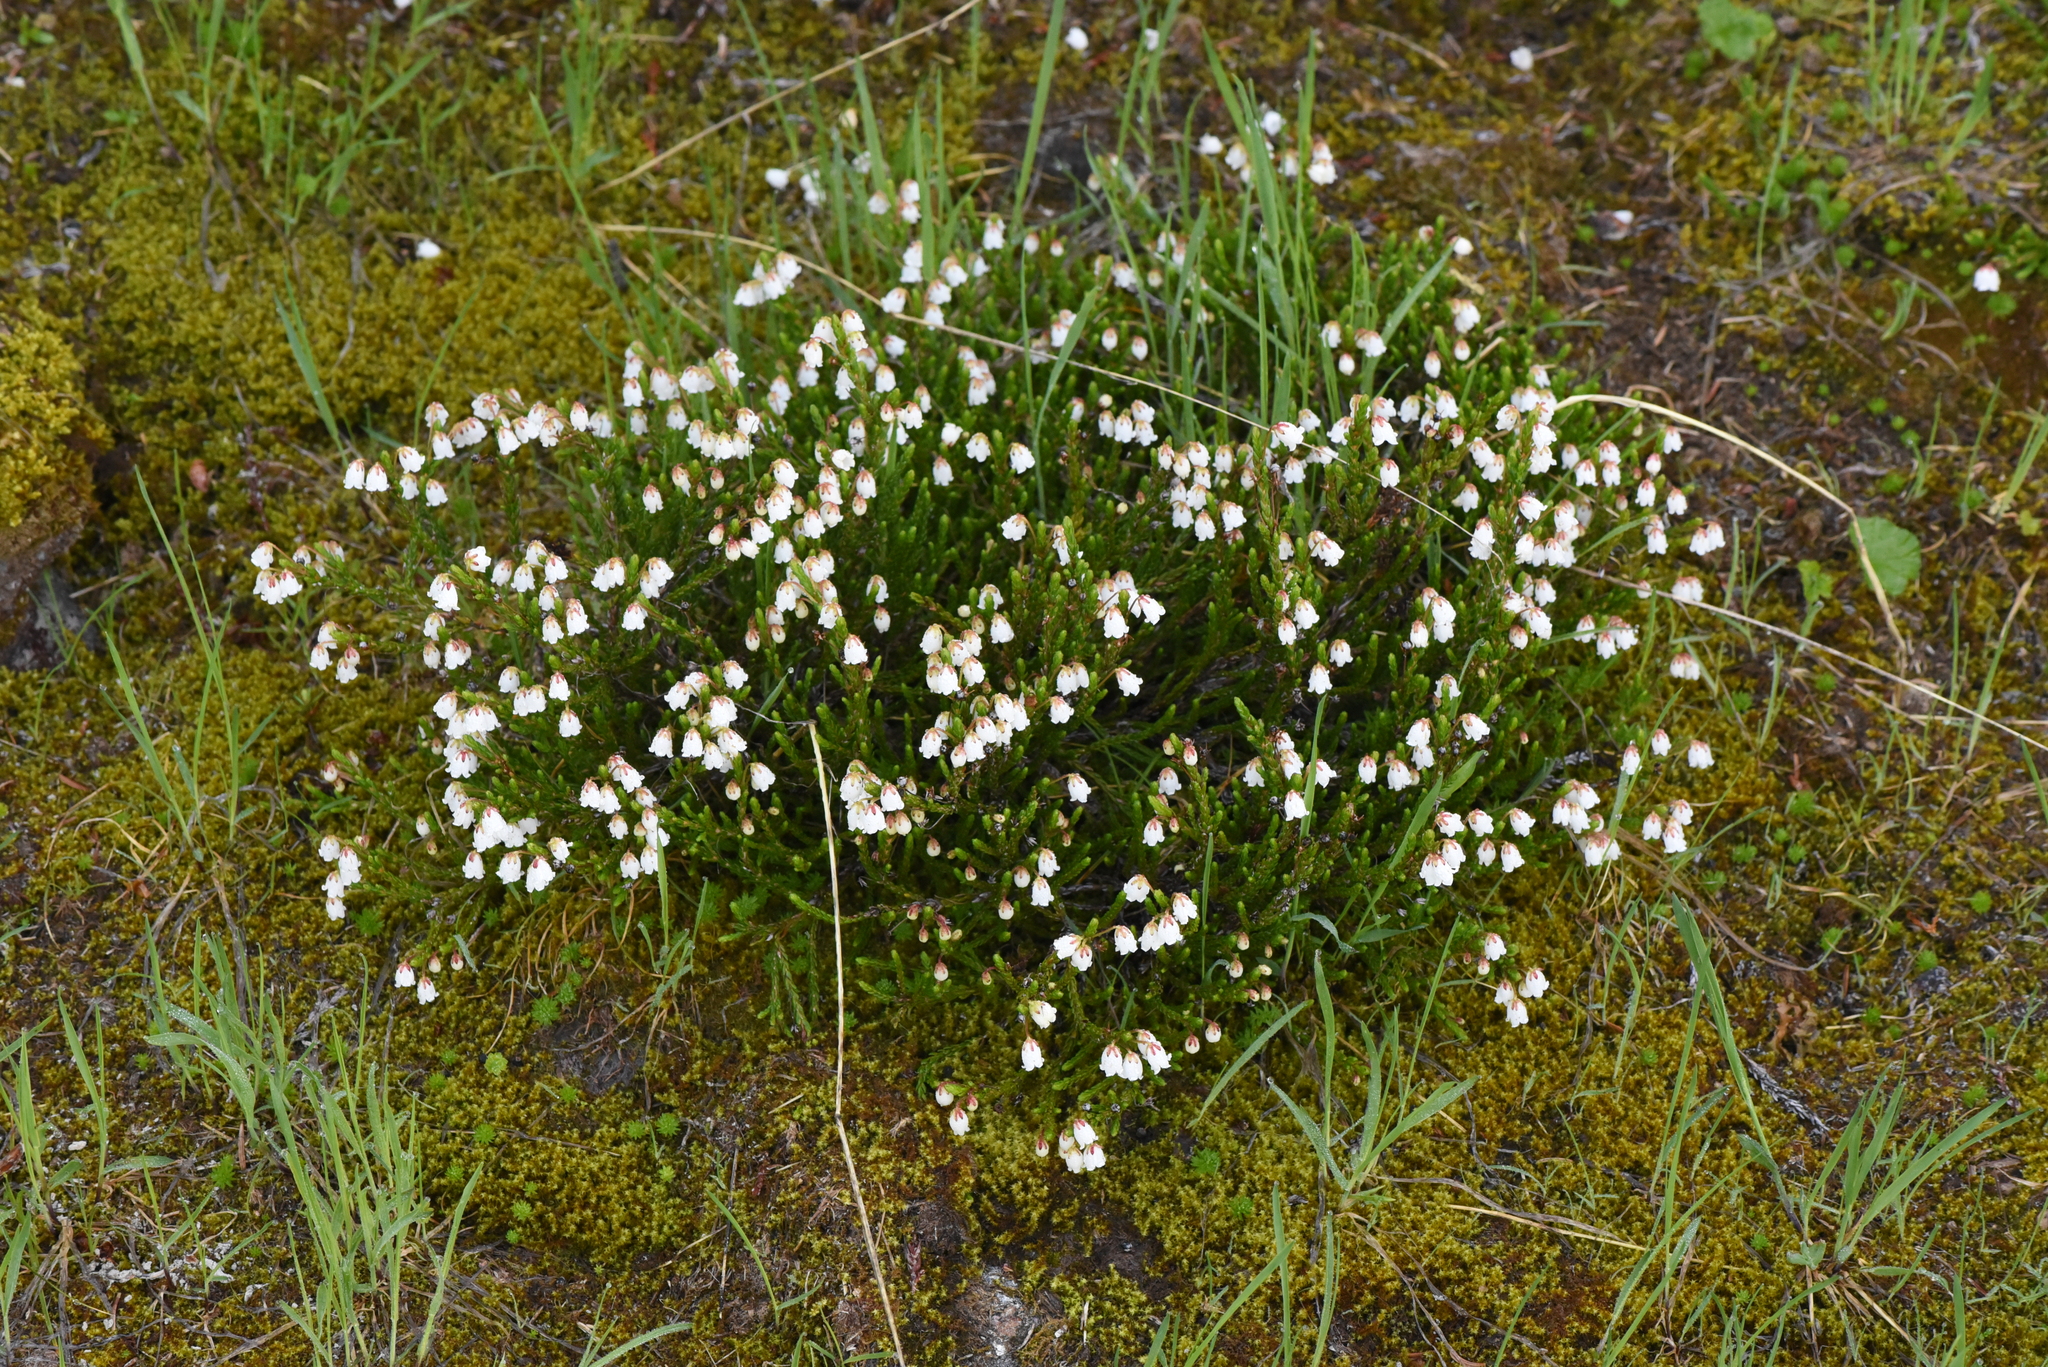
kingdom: Plantae
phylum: Tracheophyta
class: Magnoliopsida
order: Ericales
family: Ericaceae
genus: Cassiope
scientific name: Cassiope mertensiana
